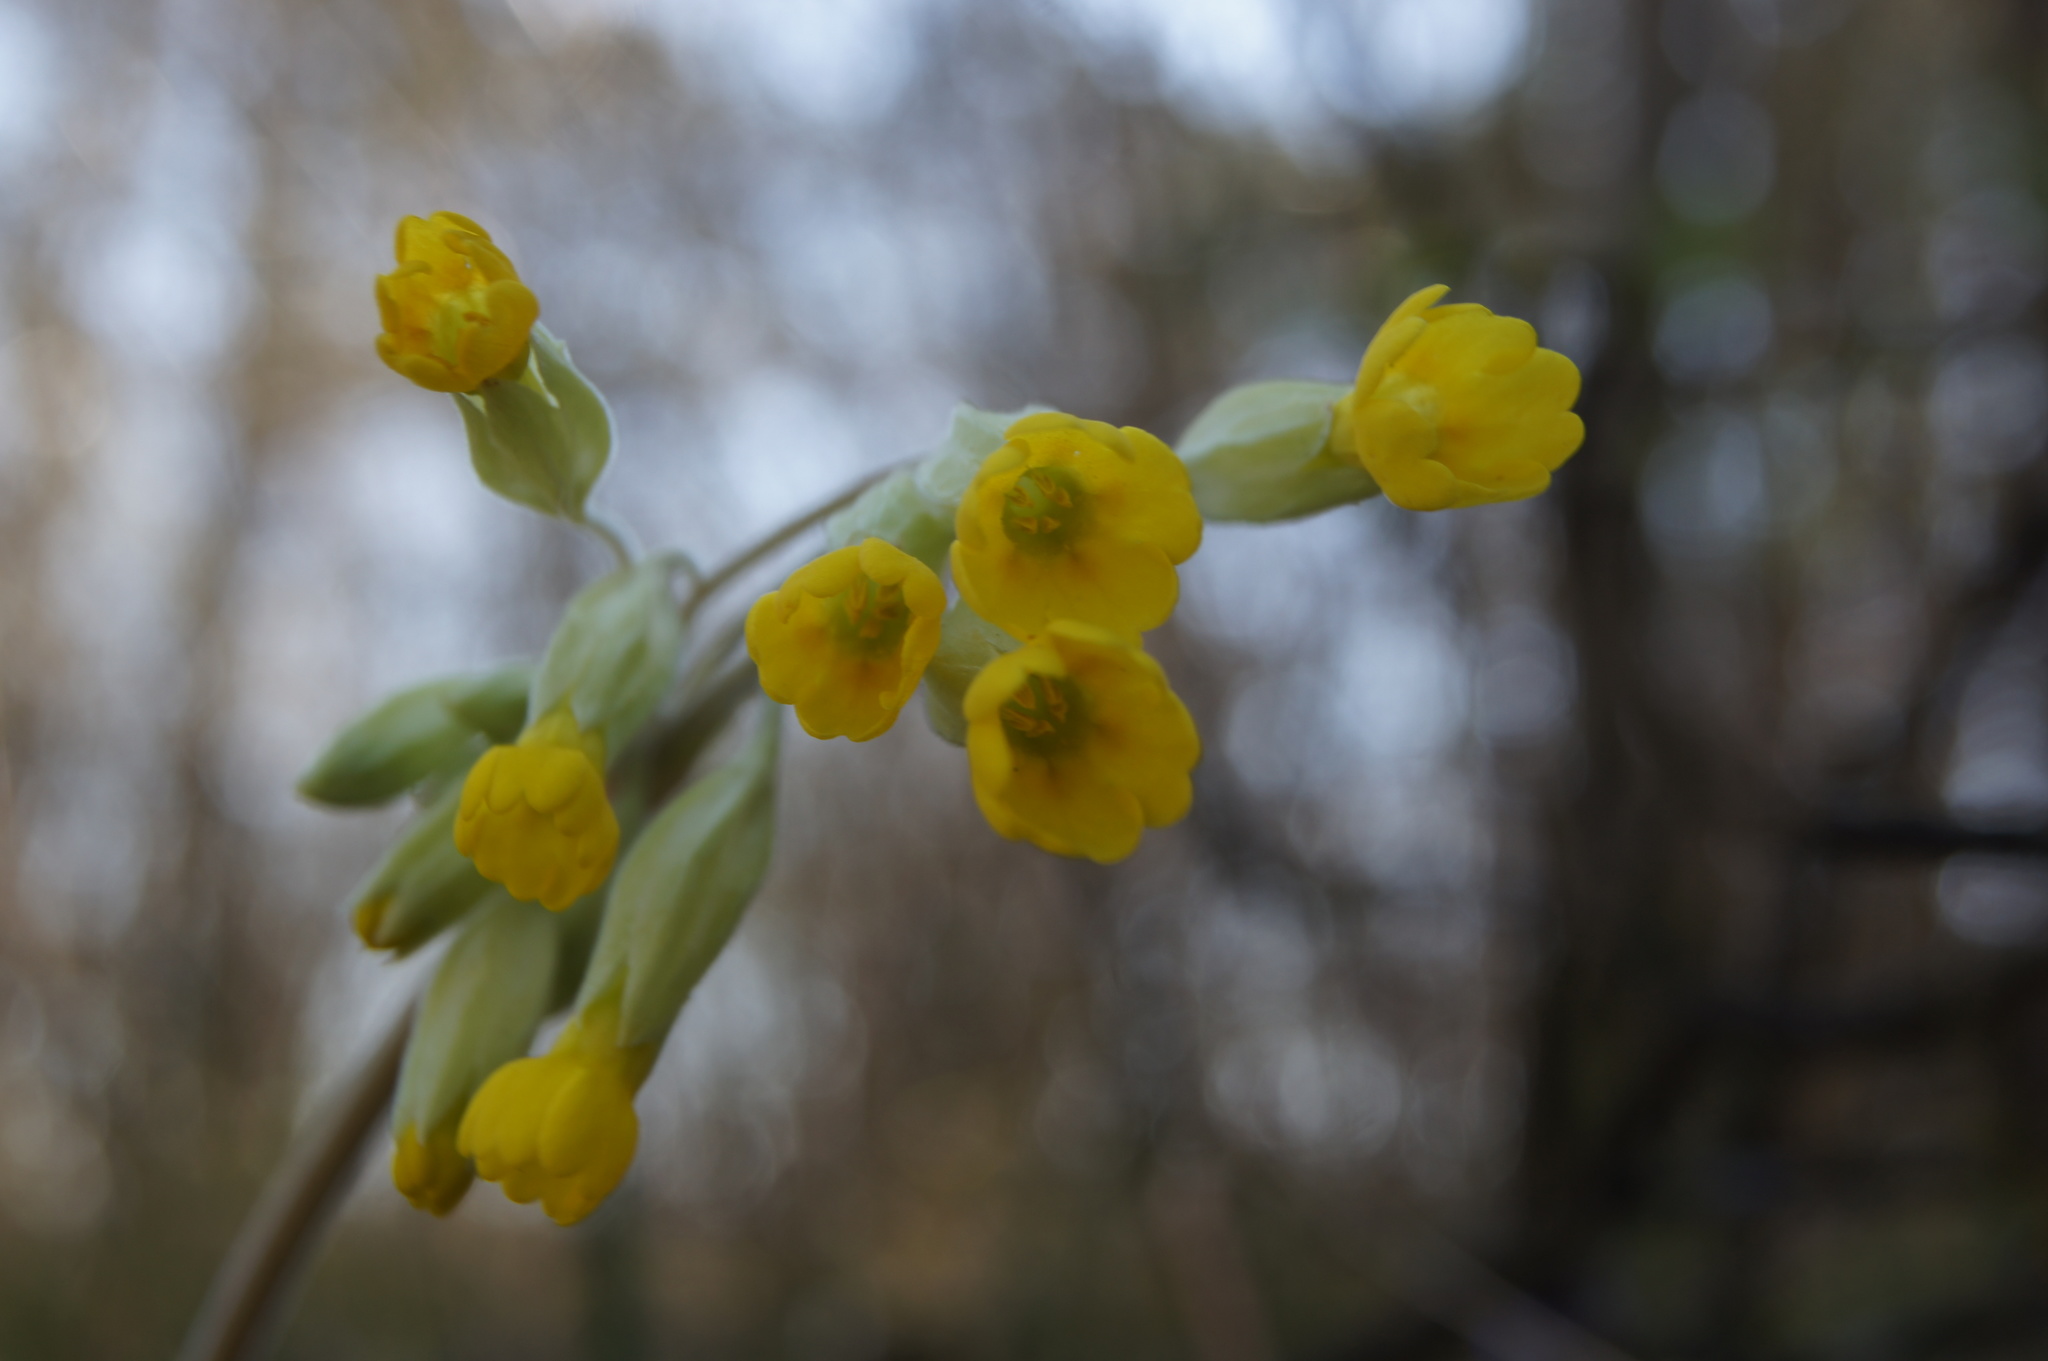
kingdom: Plantae
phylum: Tracheophyta
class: Magnoliopsida
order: Ericales
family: Primulaceae
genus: Primula
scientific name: Primula veris
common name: Cowslip
